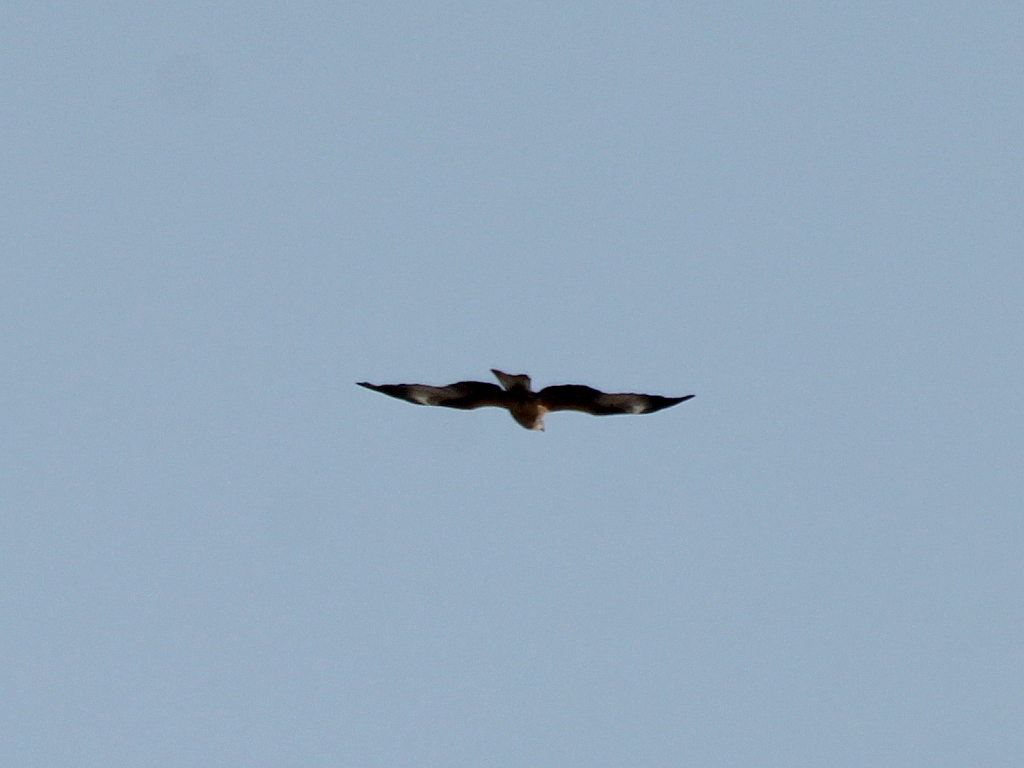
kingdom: Animalia
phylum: Chordata
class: Aves
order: Accipitriformes
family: Accipitridae
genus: Milvus
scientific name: Milvus migrans
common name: Black kite
